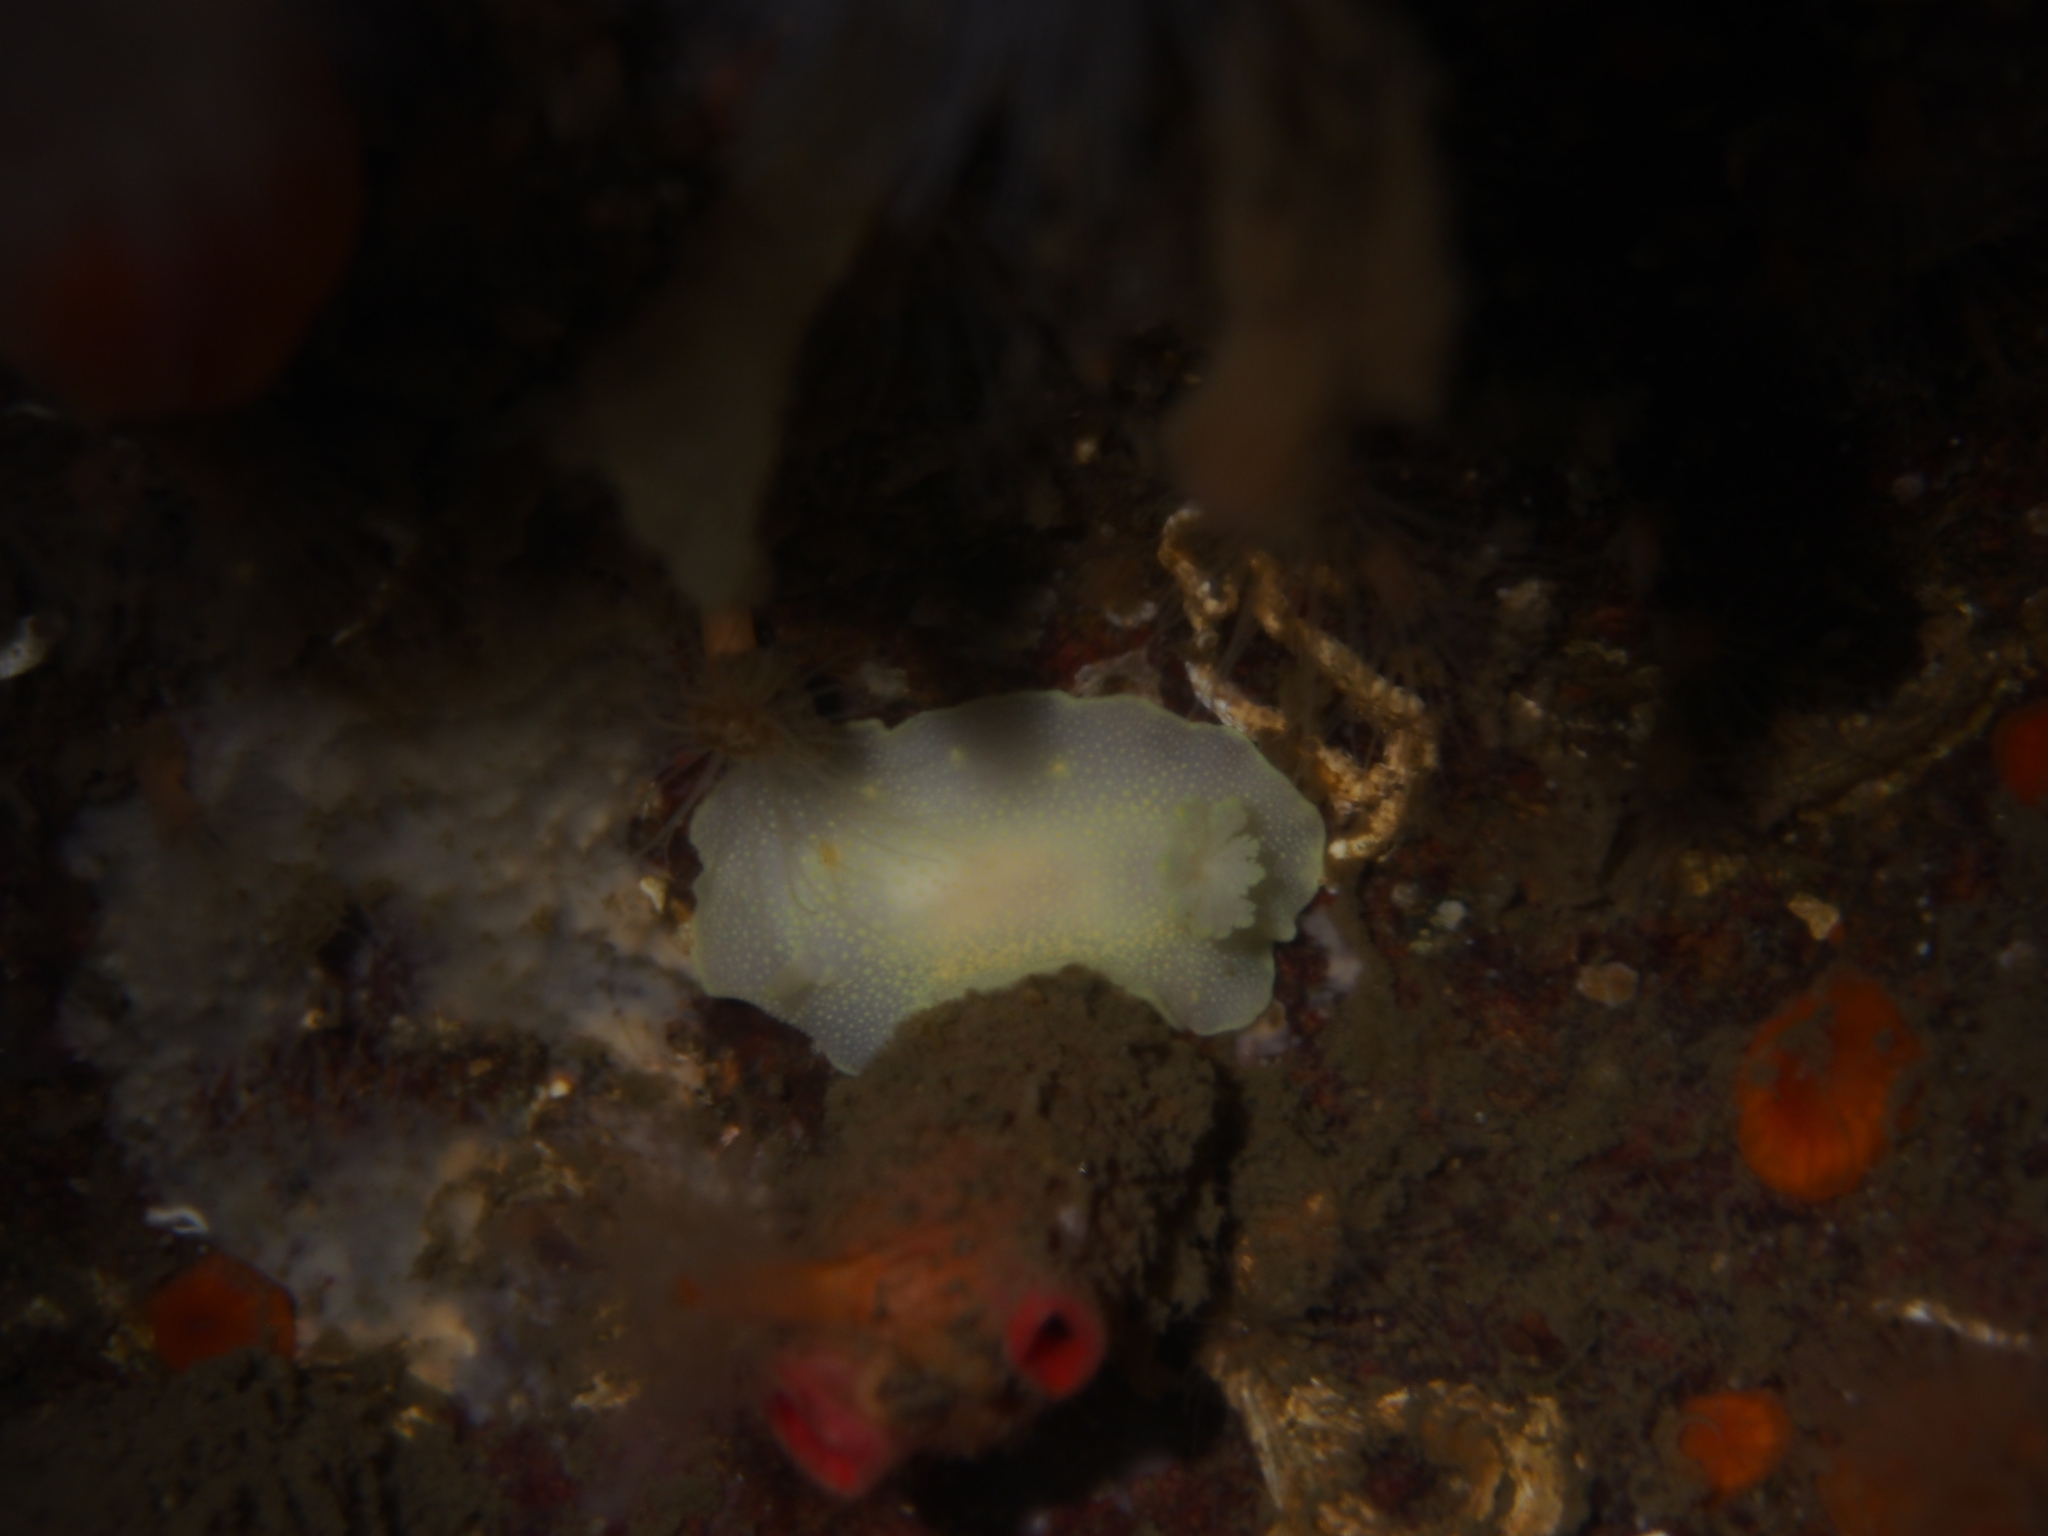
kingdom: Animalia
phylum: Mollusca
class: Gastropoda
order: Nudibranchia
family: Cadlinidae
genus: Cadlina
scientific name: Cadlina laevis
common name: White atlantic cadlina
